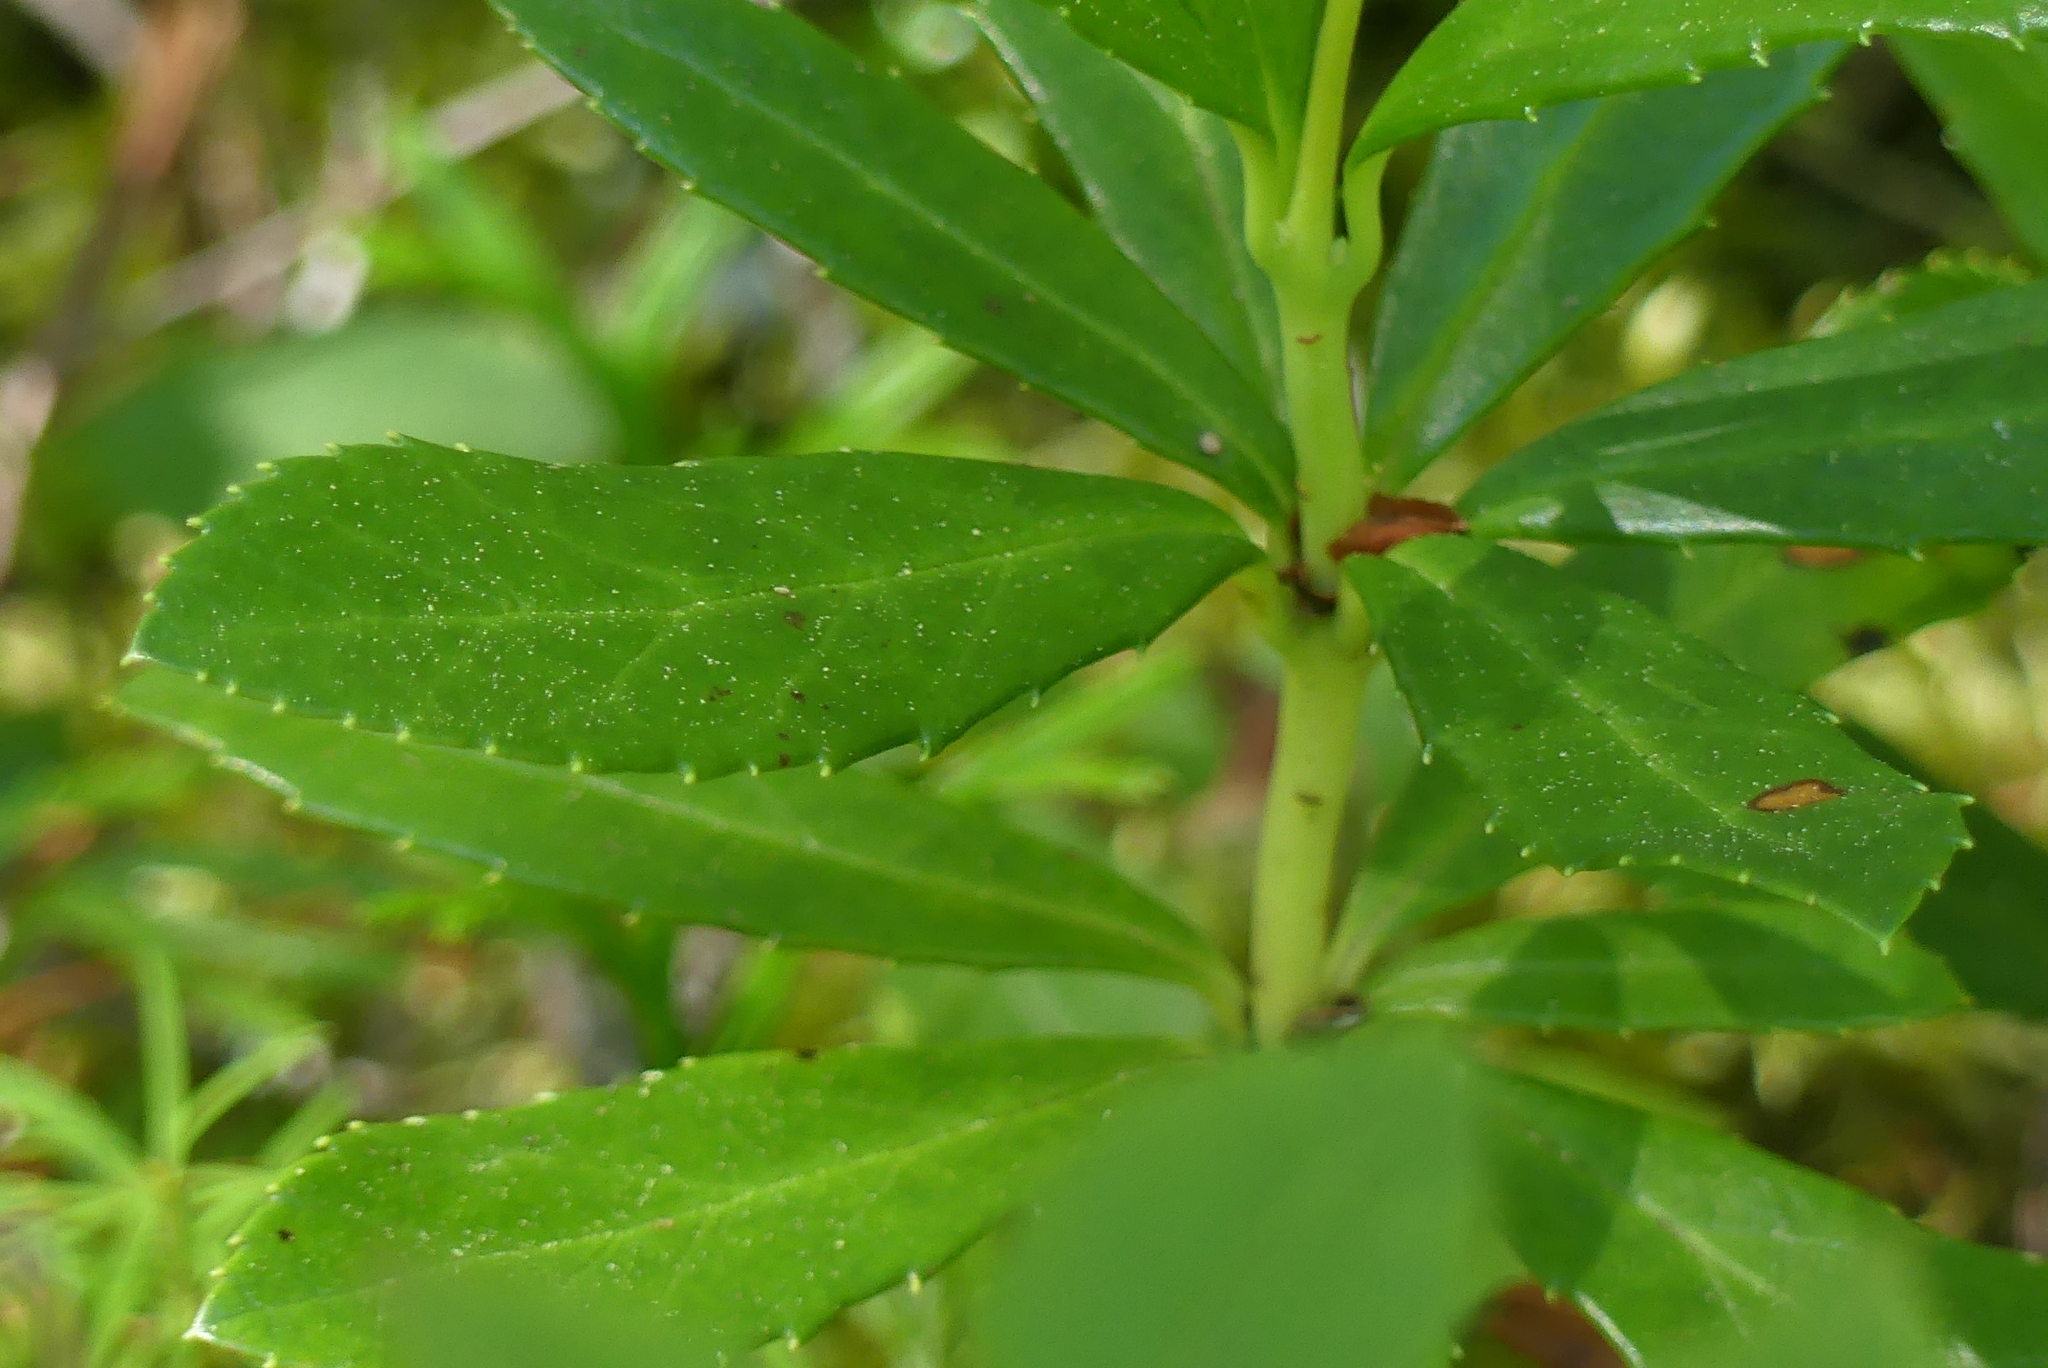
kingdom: Plantae
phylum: Tracheophyta
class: Magnoliopsida
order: Ericales
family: Ericaceae
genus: Chimaphila
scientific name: Chimaphila umbellata
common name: Pipsissewa
